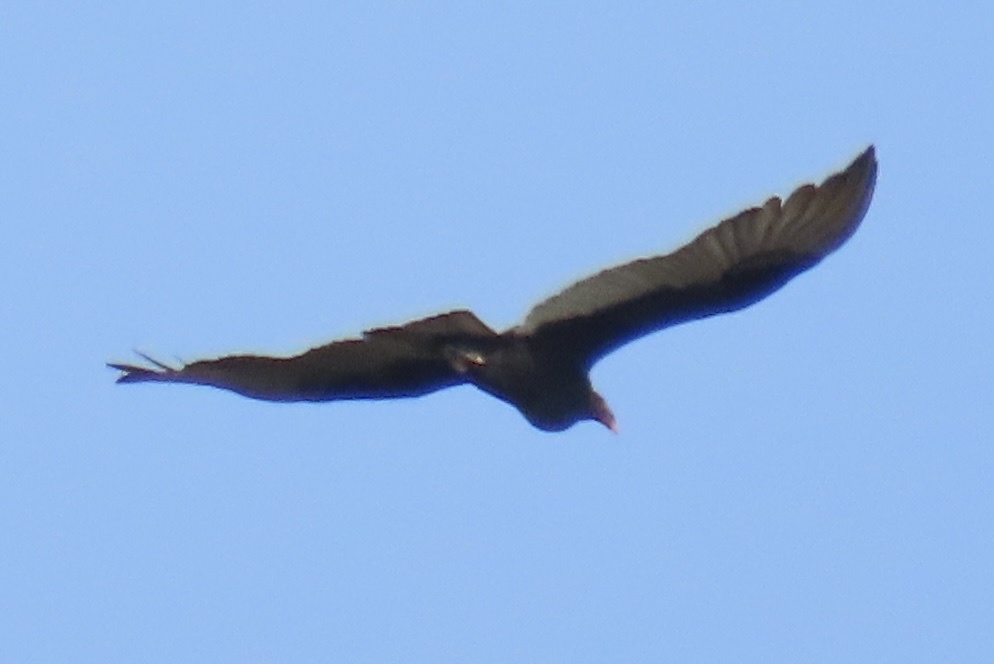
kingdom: Animalia
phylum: Chordata
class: Aves
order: Accipitriformes
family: Cathartidae
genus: Cathartes
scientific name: Cathartes aura
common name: Turkey vulture
